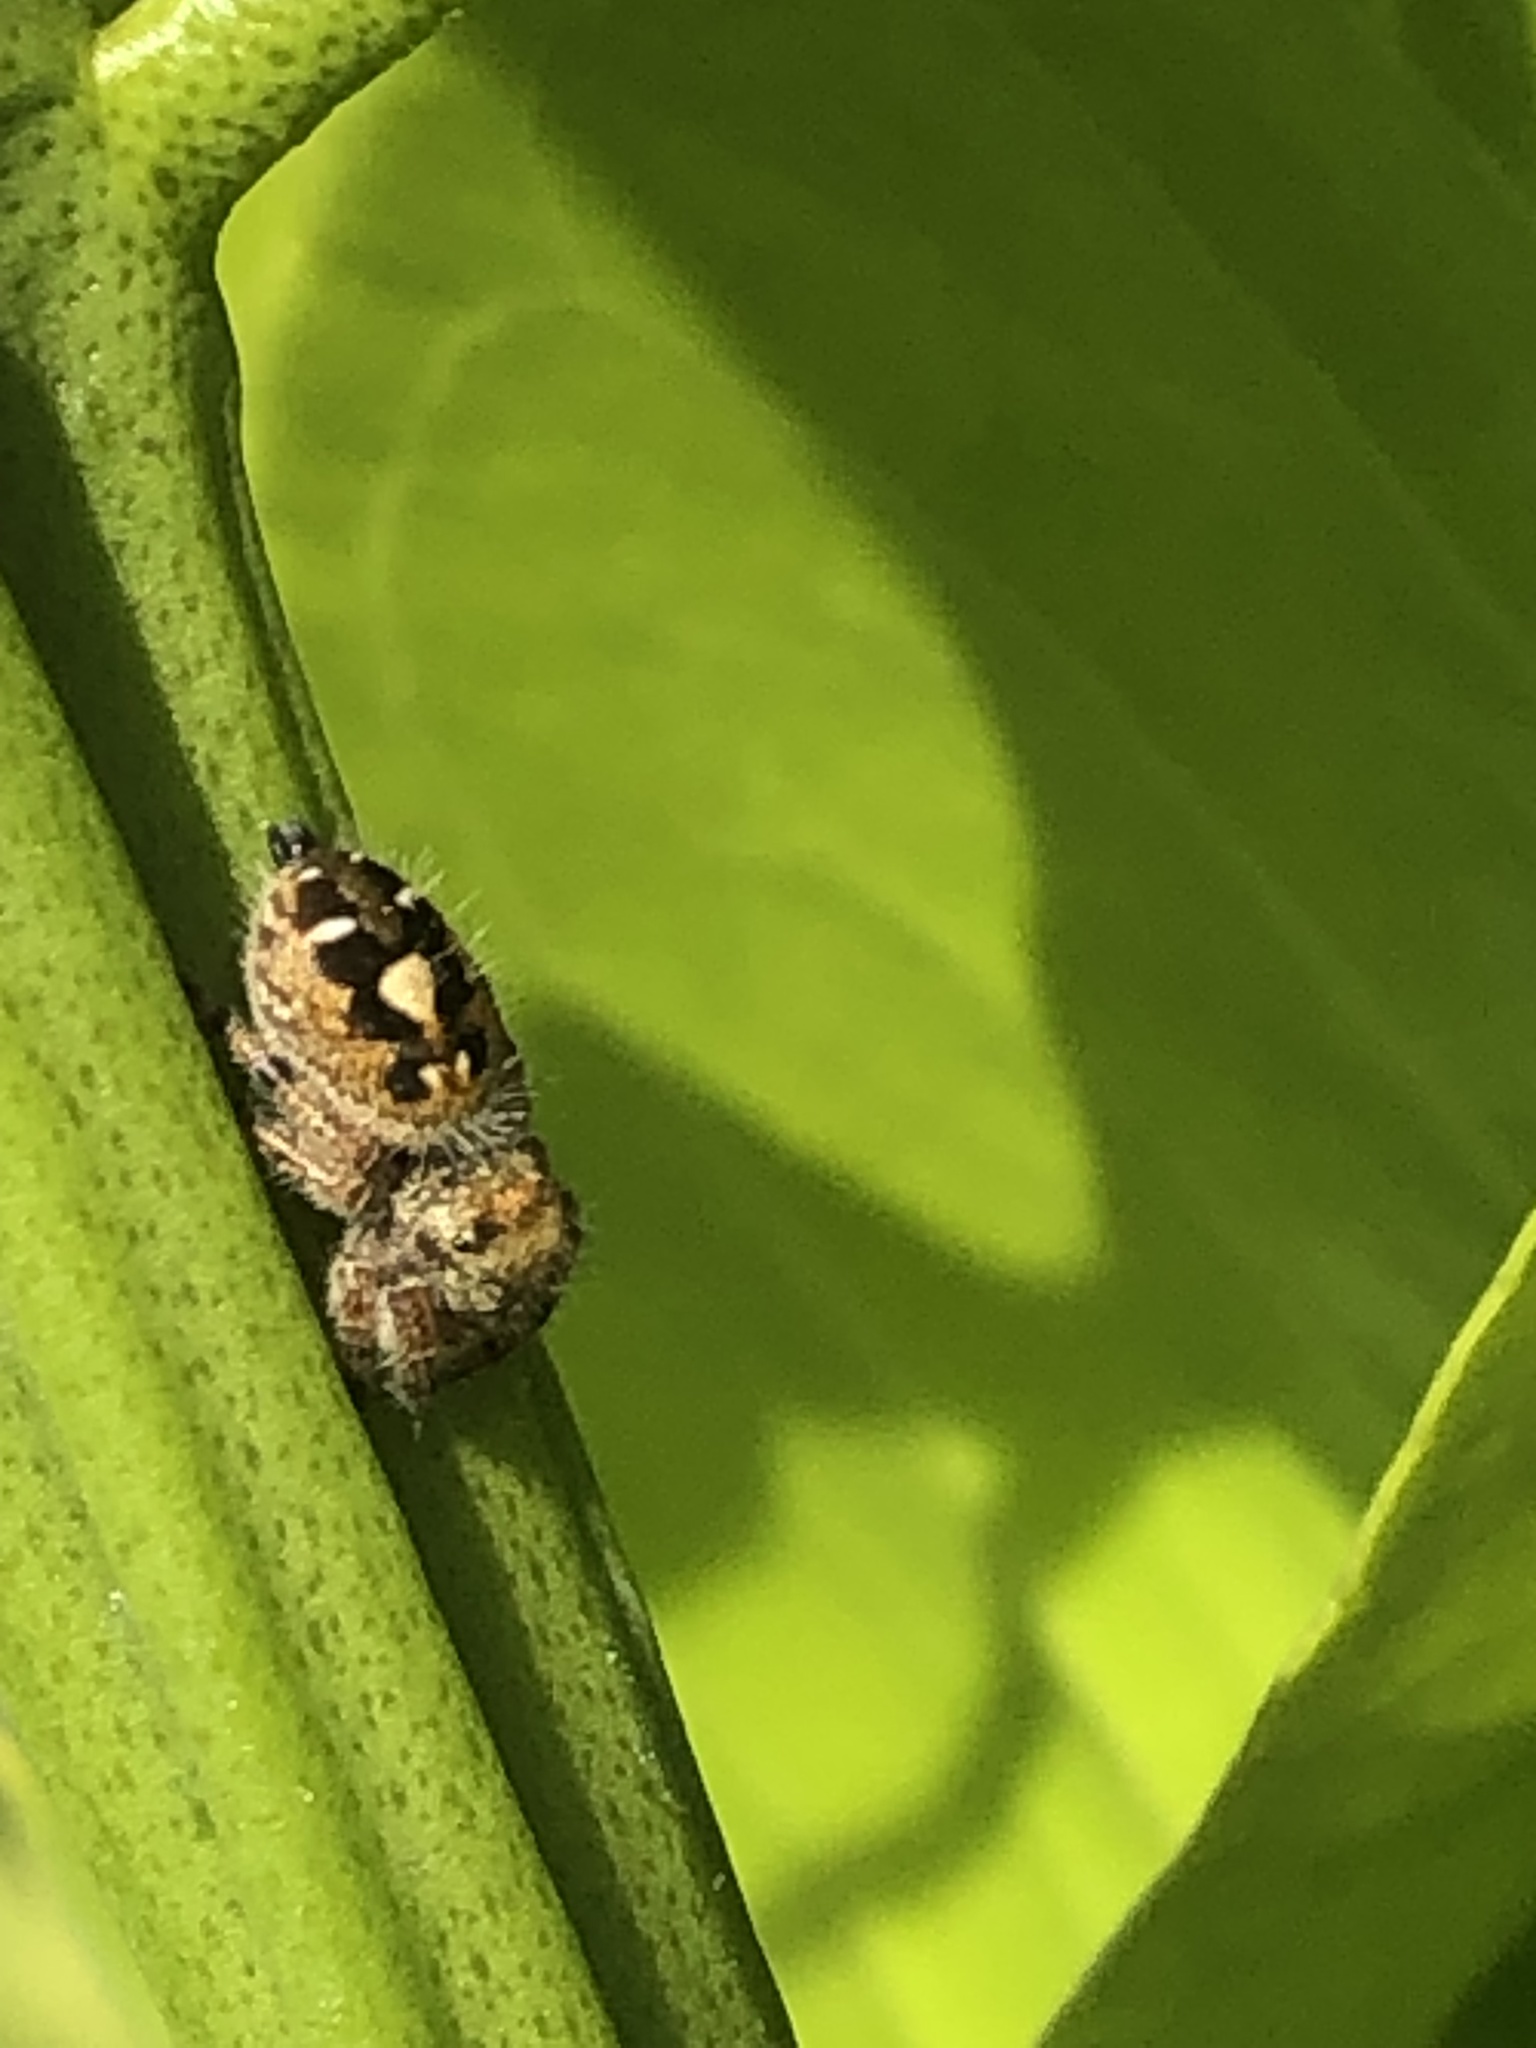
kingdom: Animalia
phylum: Arthropoda
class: Arachnida
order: Araneae
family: Salticidae
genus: Phidippus
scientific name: Phidippus audax
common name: Bold jumper
